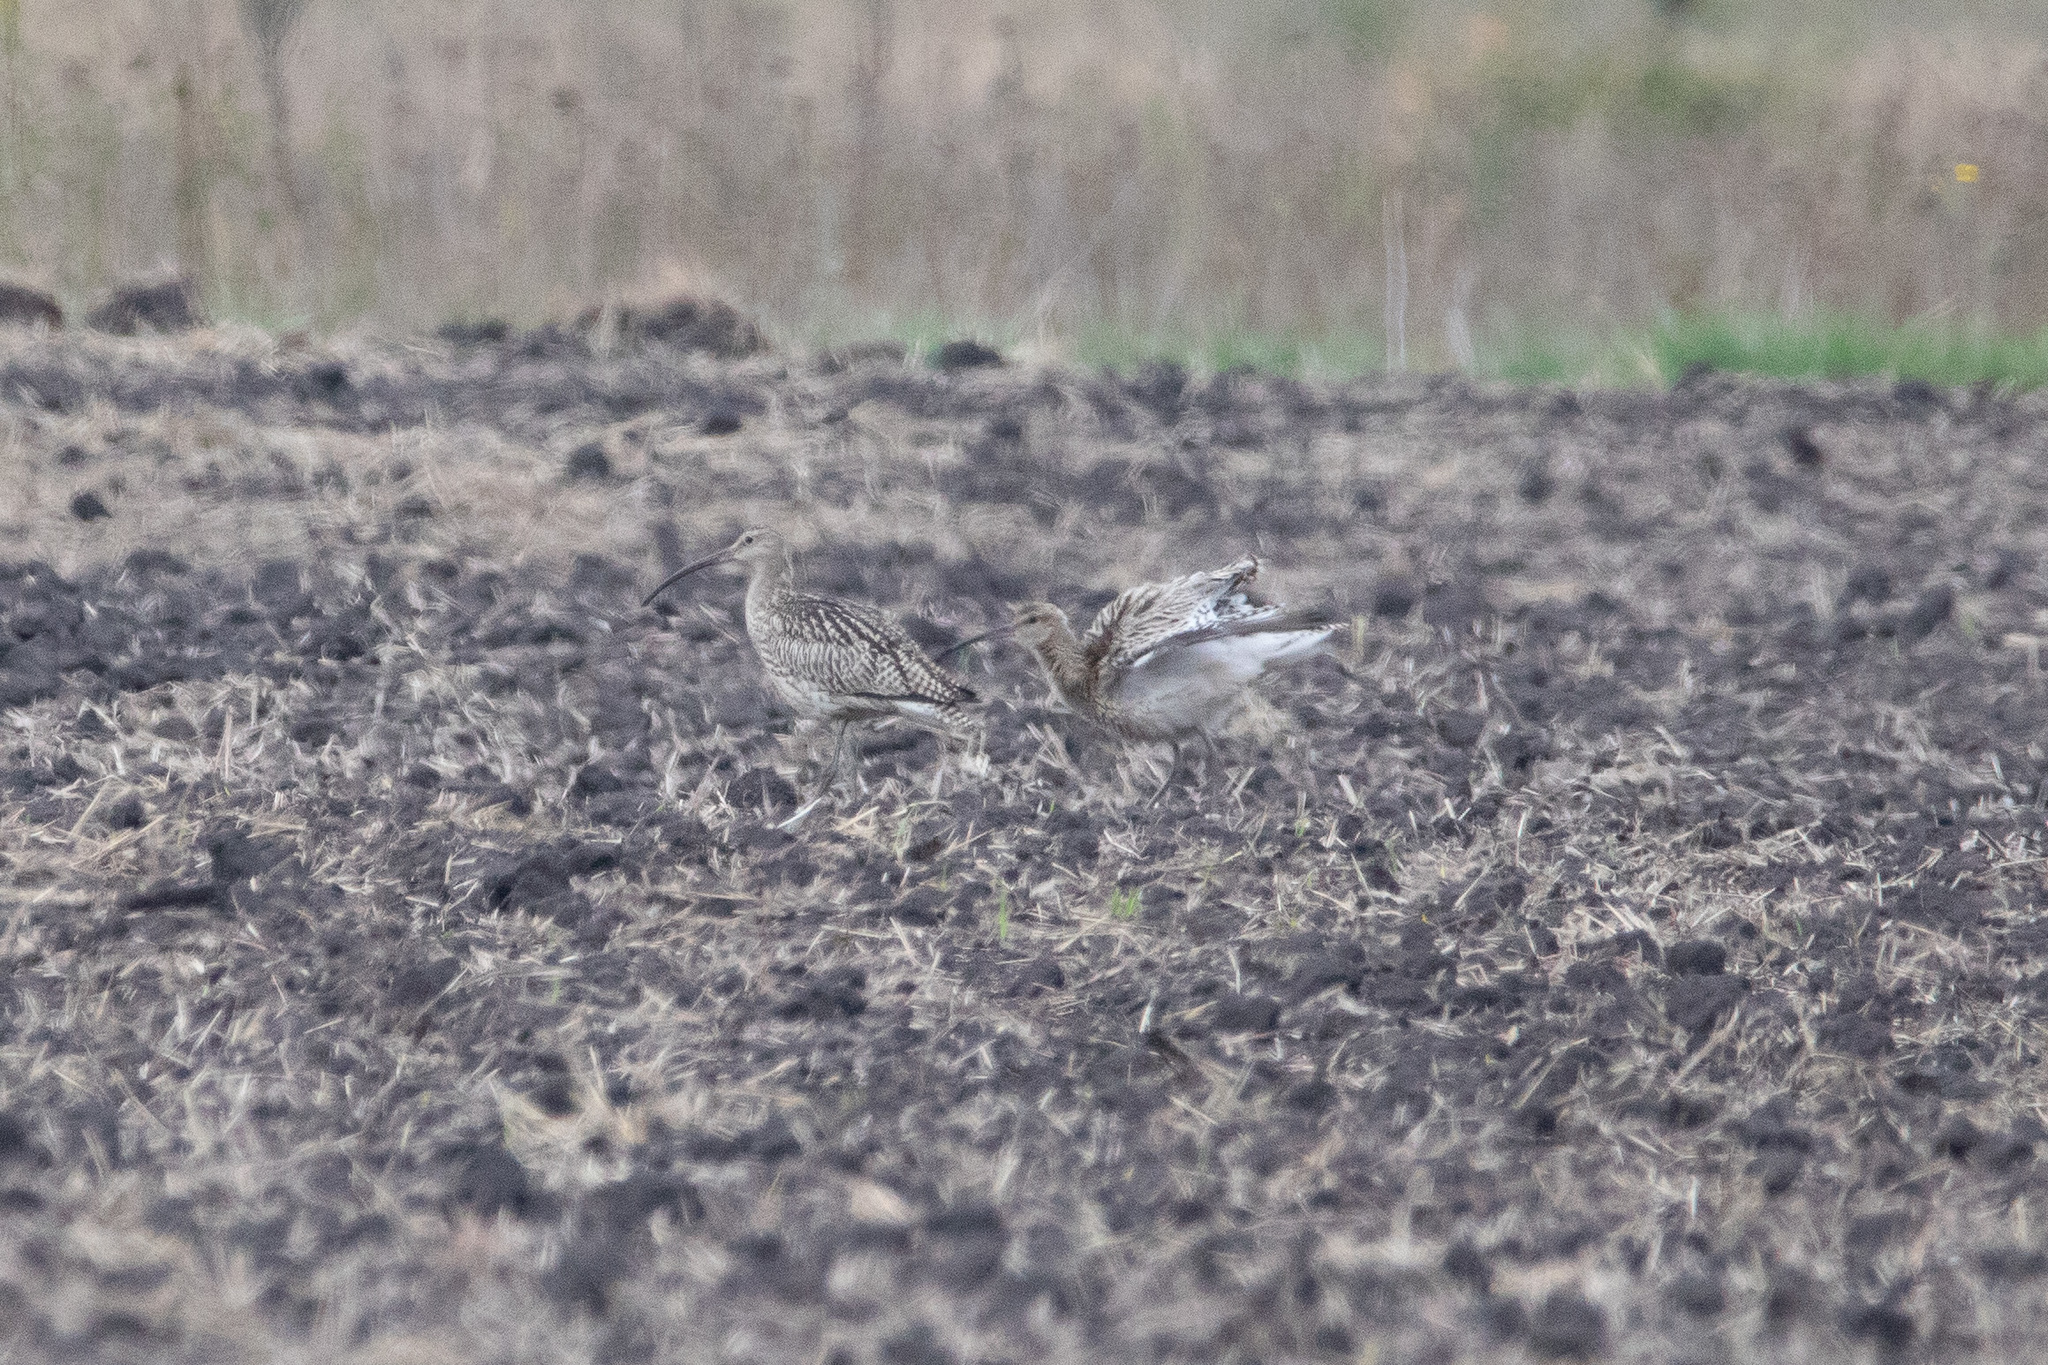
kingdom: Animalia
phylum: Chordata
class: Aves
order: Charadriiformes
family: Scolopacidae
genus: Numenius
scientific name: Numenius arquata
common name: Eurasian curlew
